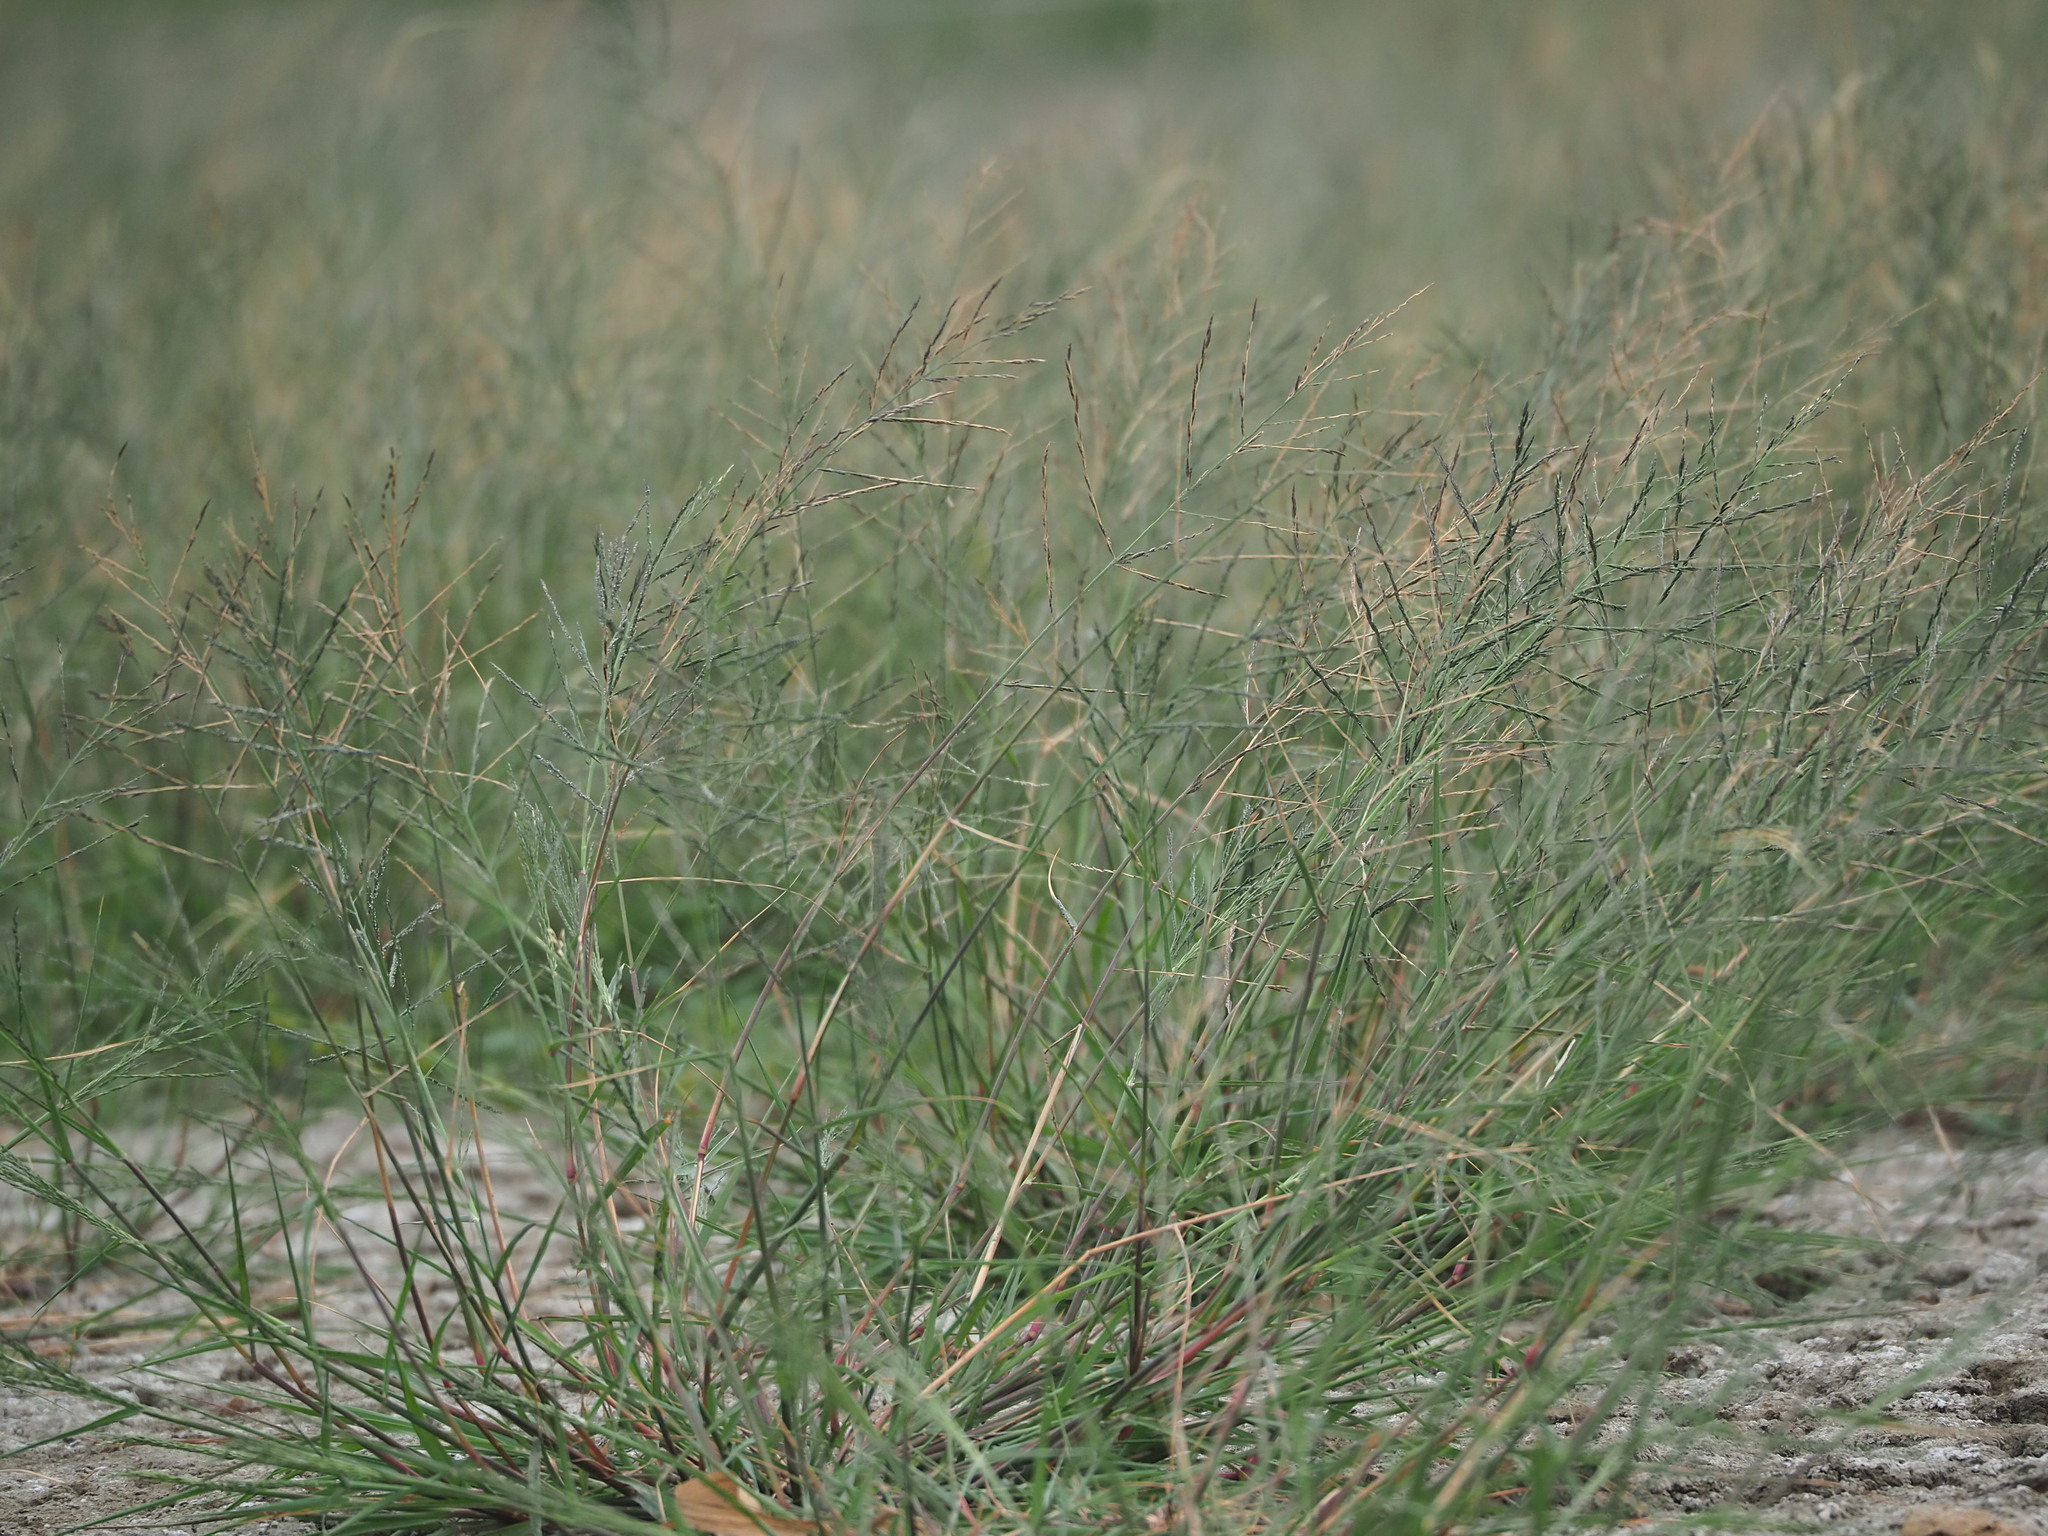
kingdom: Plantae
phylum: Tracheophyta
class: Liliopsida
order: Poales
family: Poaceae
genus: Diplachne
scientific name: Diplachne fusca
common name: Brown beetle grass
